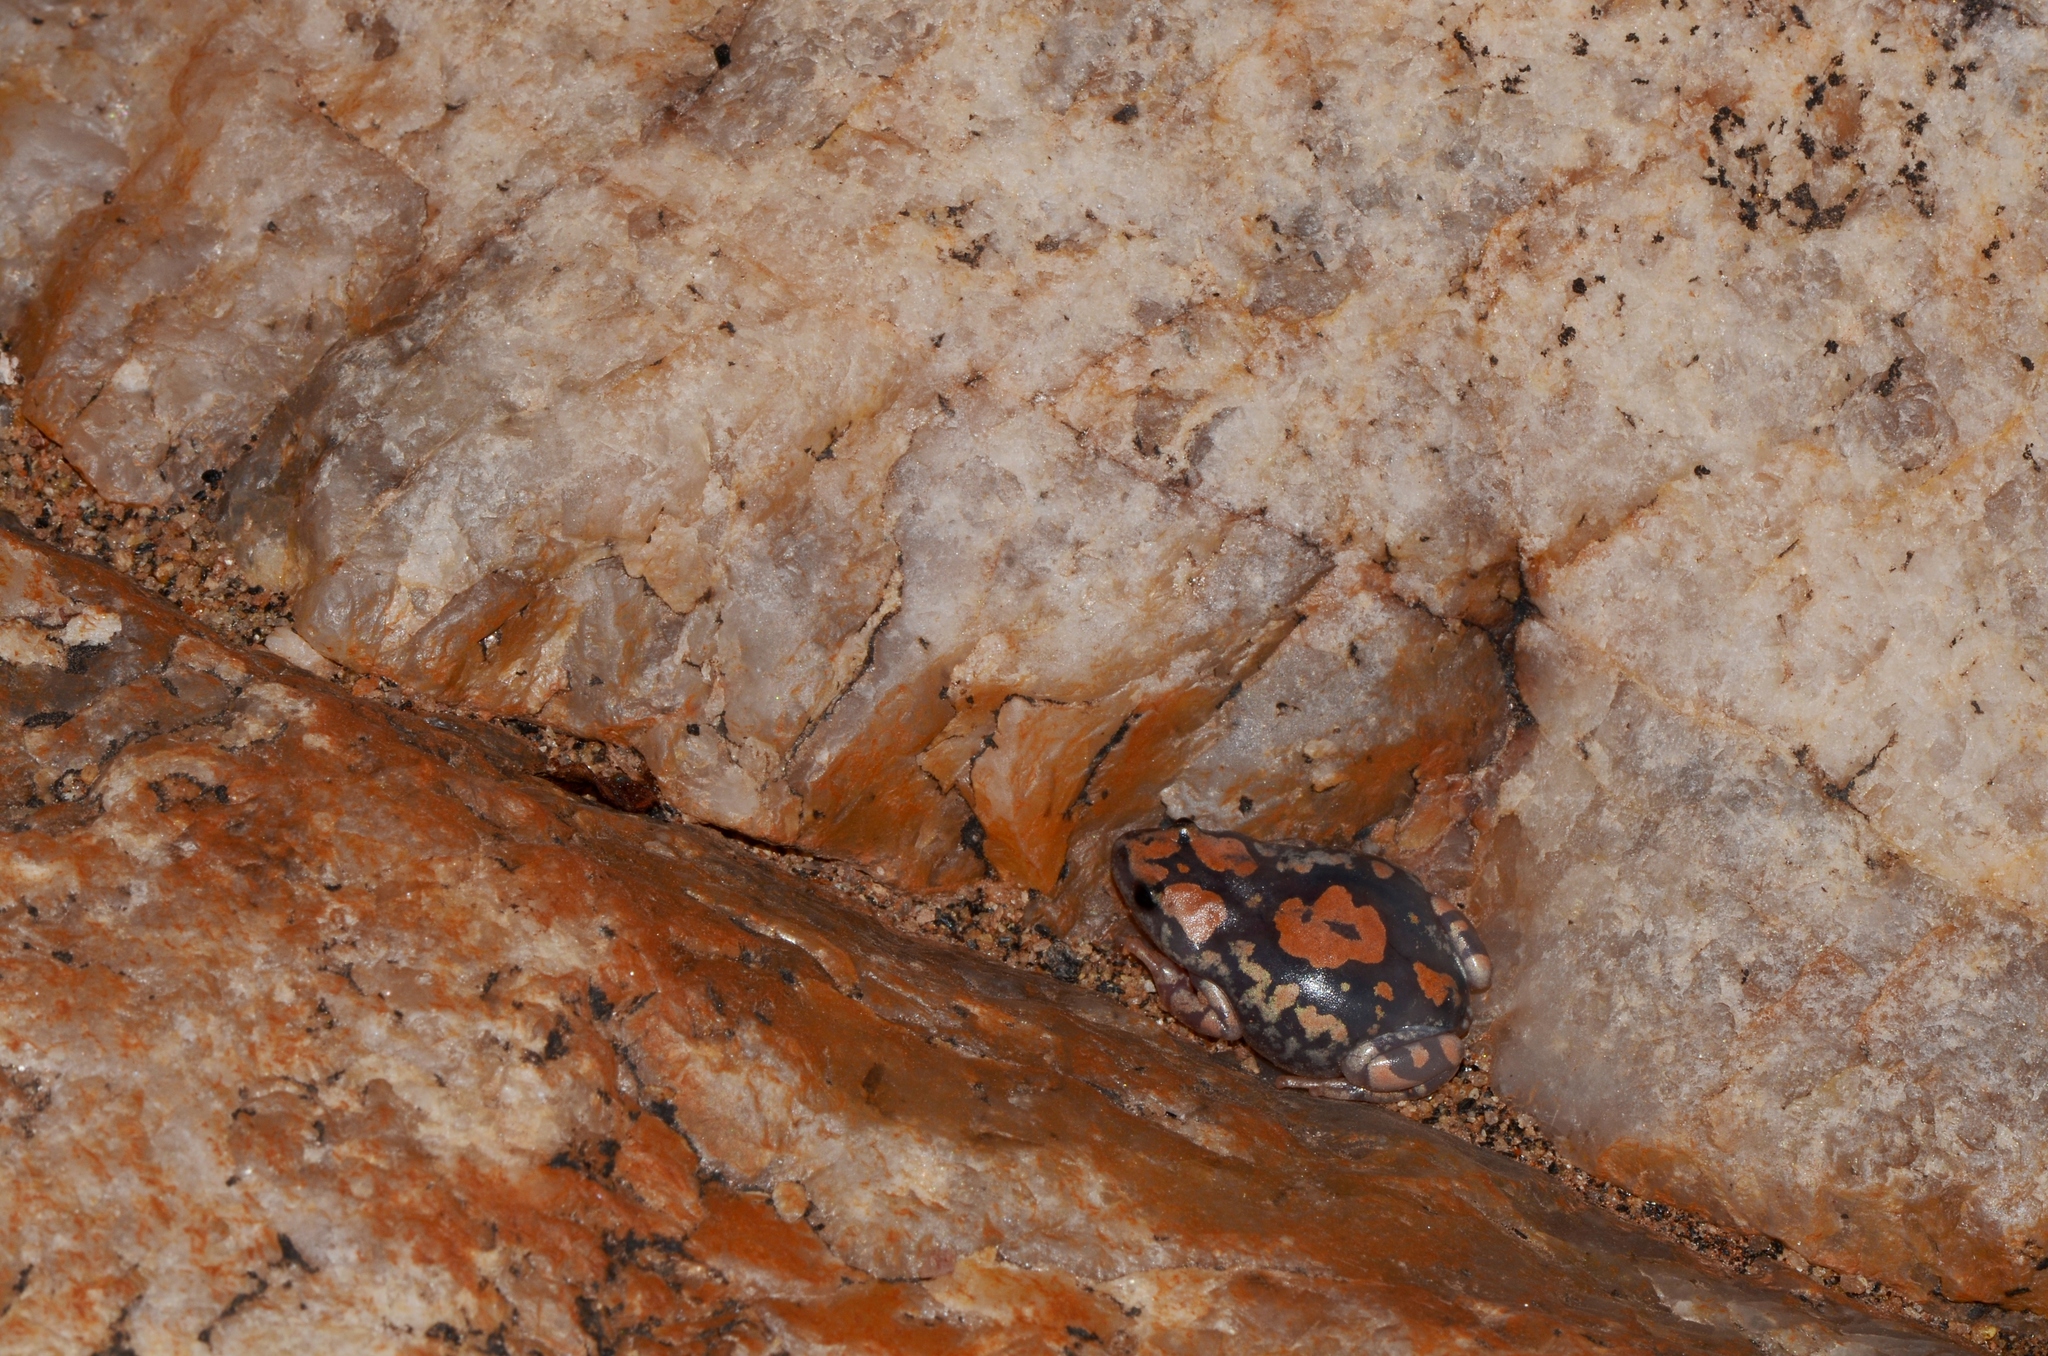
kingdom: Animalia
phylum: Chordata
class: Amphibia
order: Anura
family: Microhylidae
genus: Phrynomantis
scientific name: Phrynomantis annectens
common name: Marbled rubber frog
